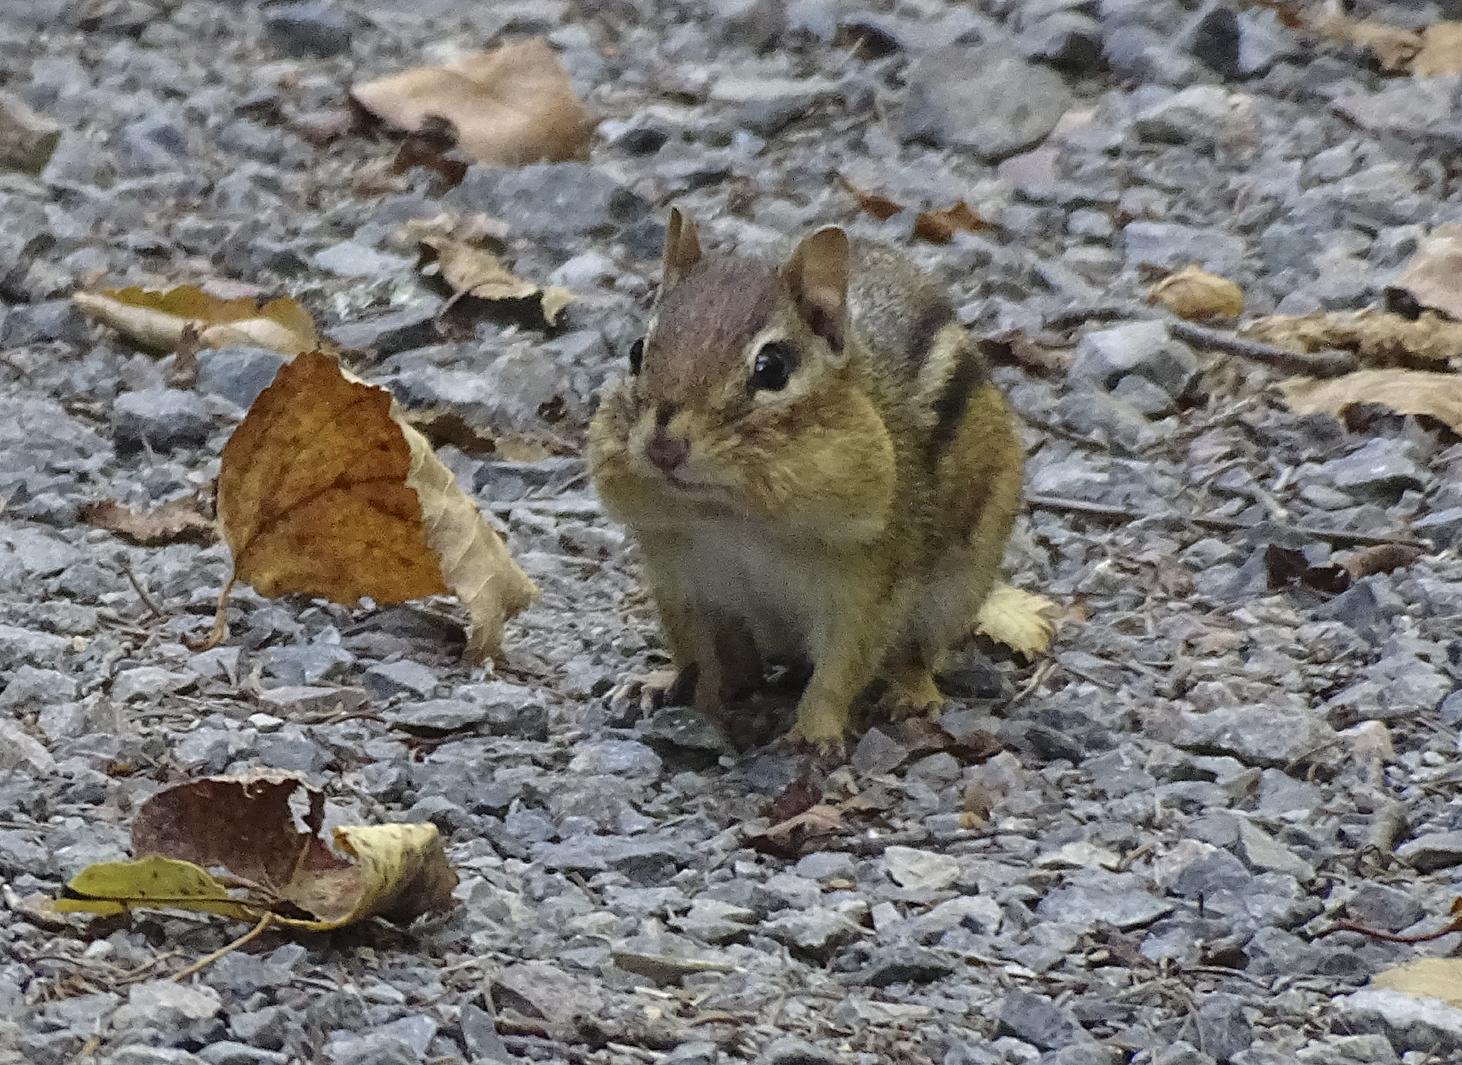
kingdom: Animalia
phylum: Chordata
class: Mammalia
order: Rodentia
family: Sciuridae
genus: Tamias
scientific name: Tamias striatus
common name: Eastern chipmunk
